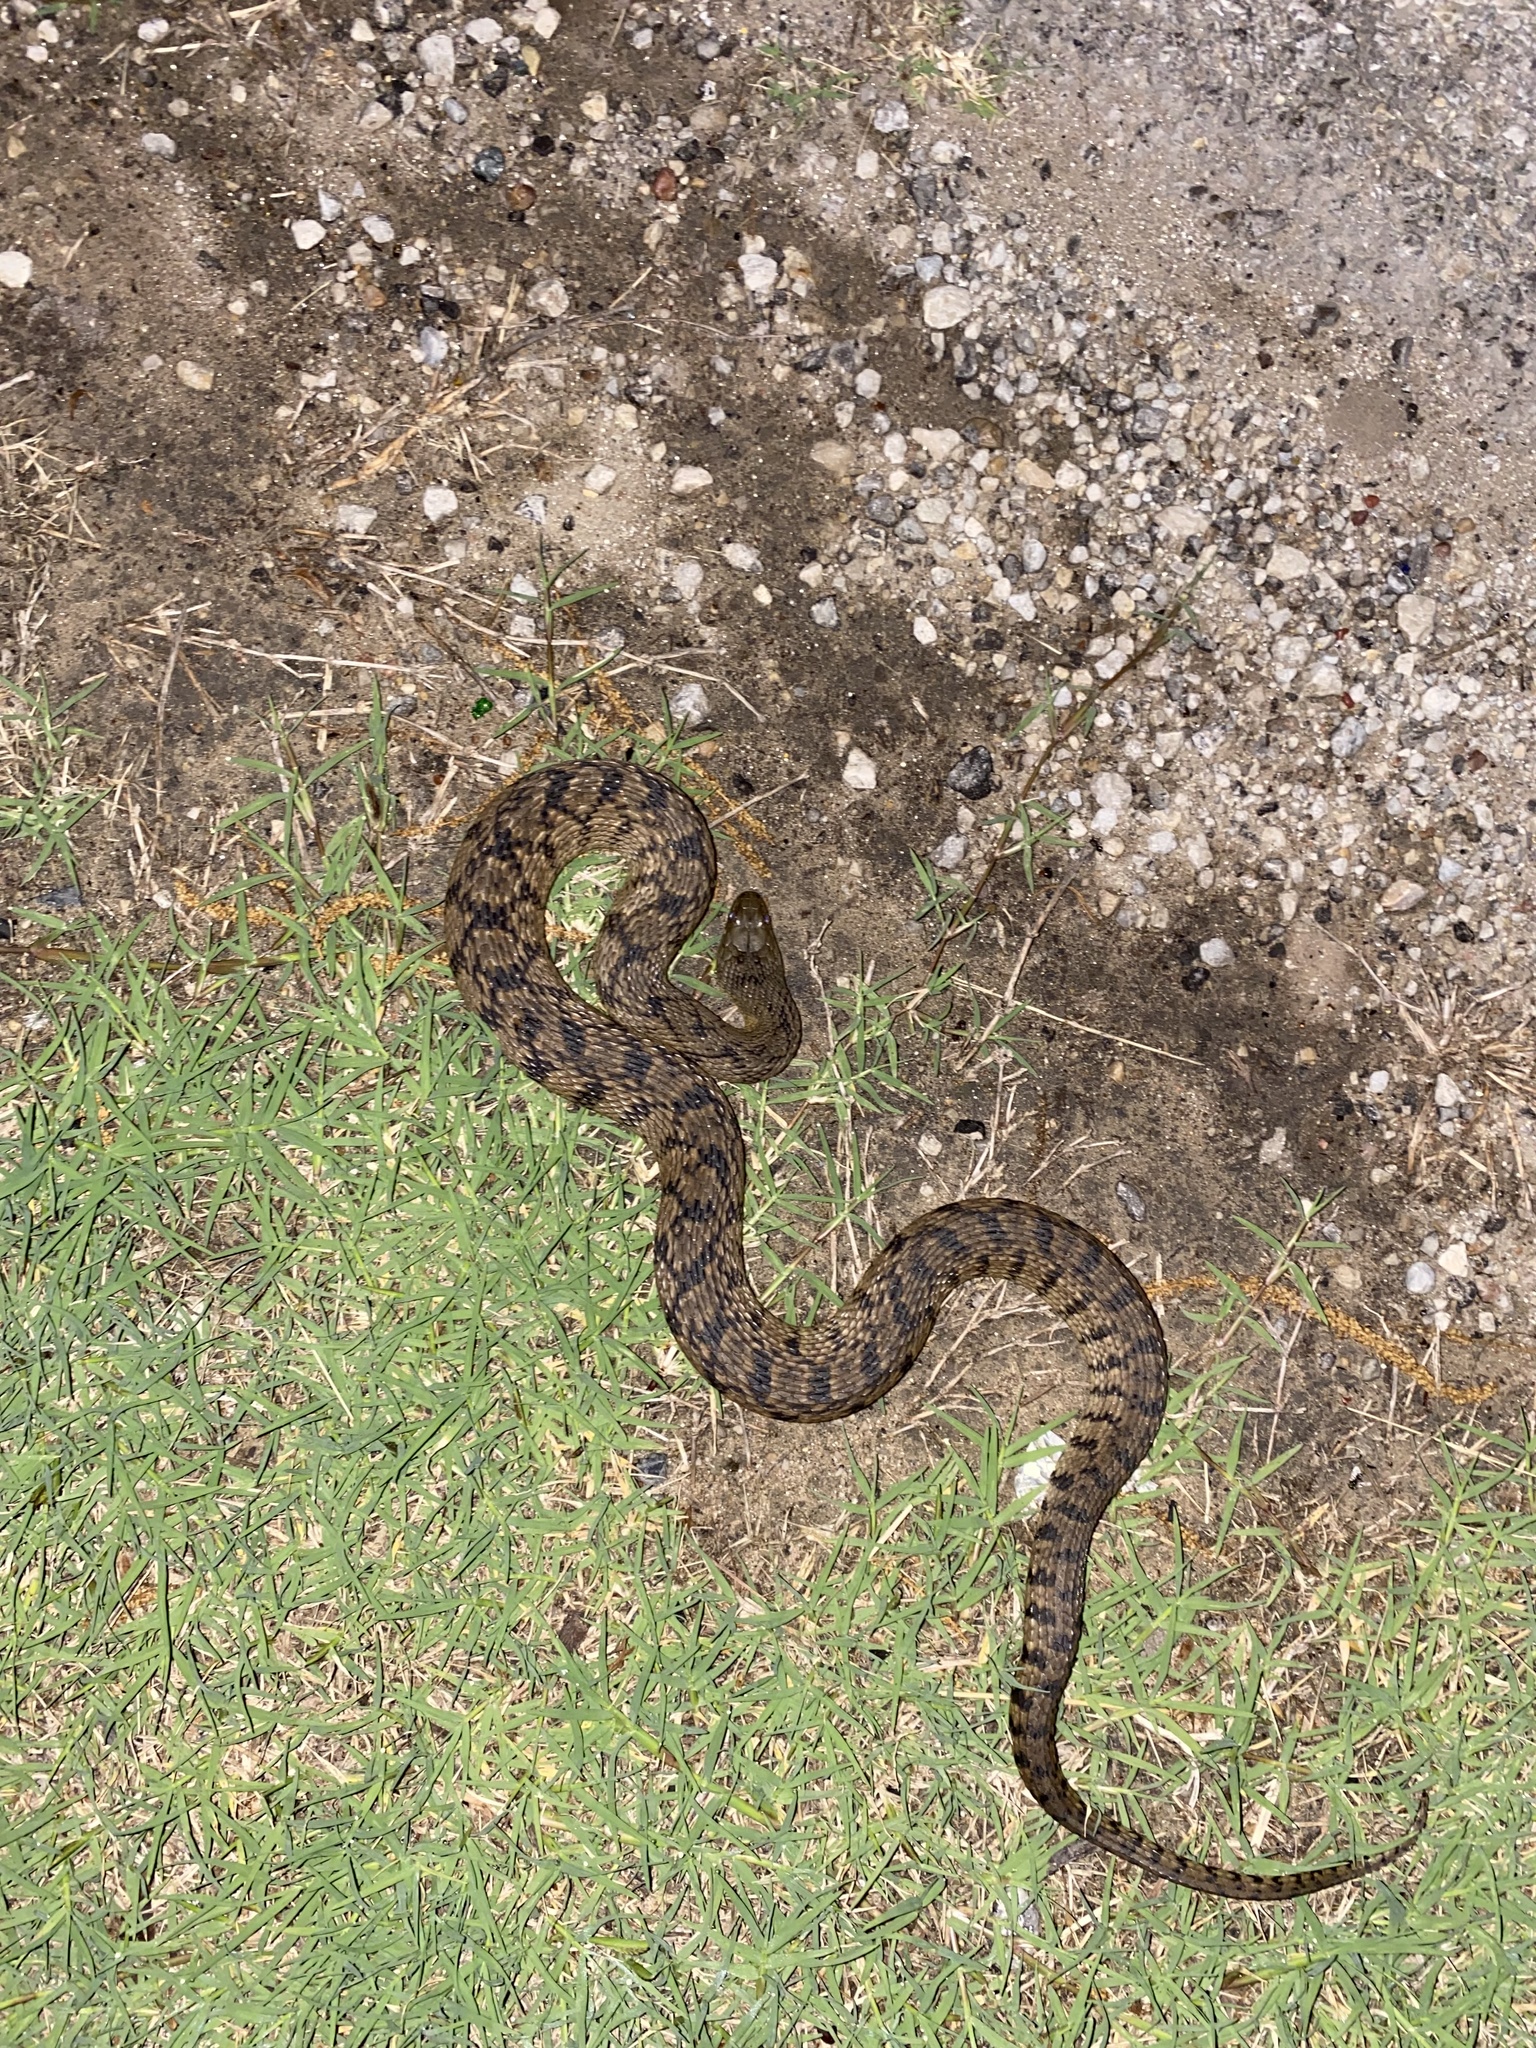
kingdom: Animalia
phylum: Chordata
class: Squamata
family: Colubridae
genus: Nerodia
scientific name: Nerodia rhombifer
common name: Diamondback water snake
